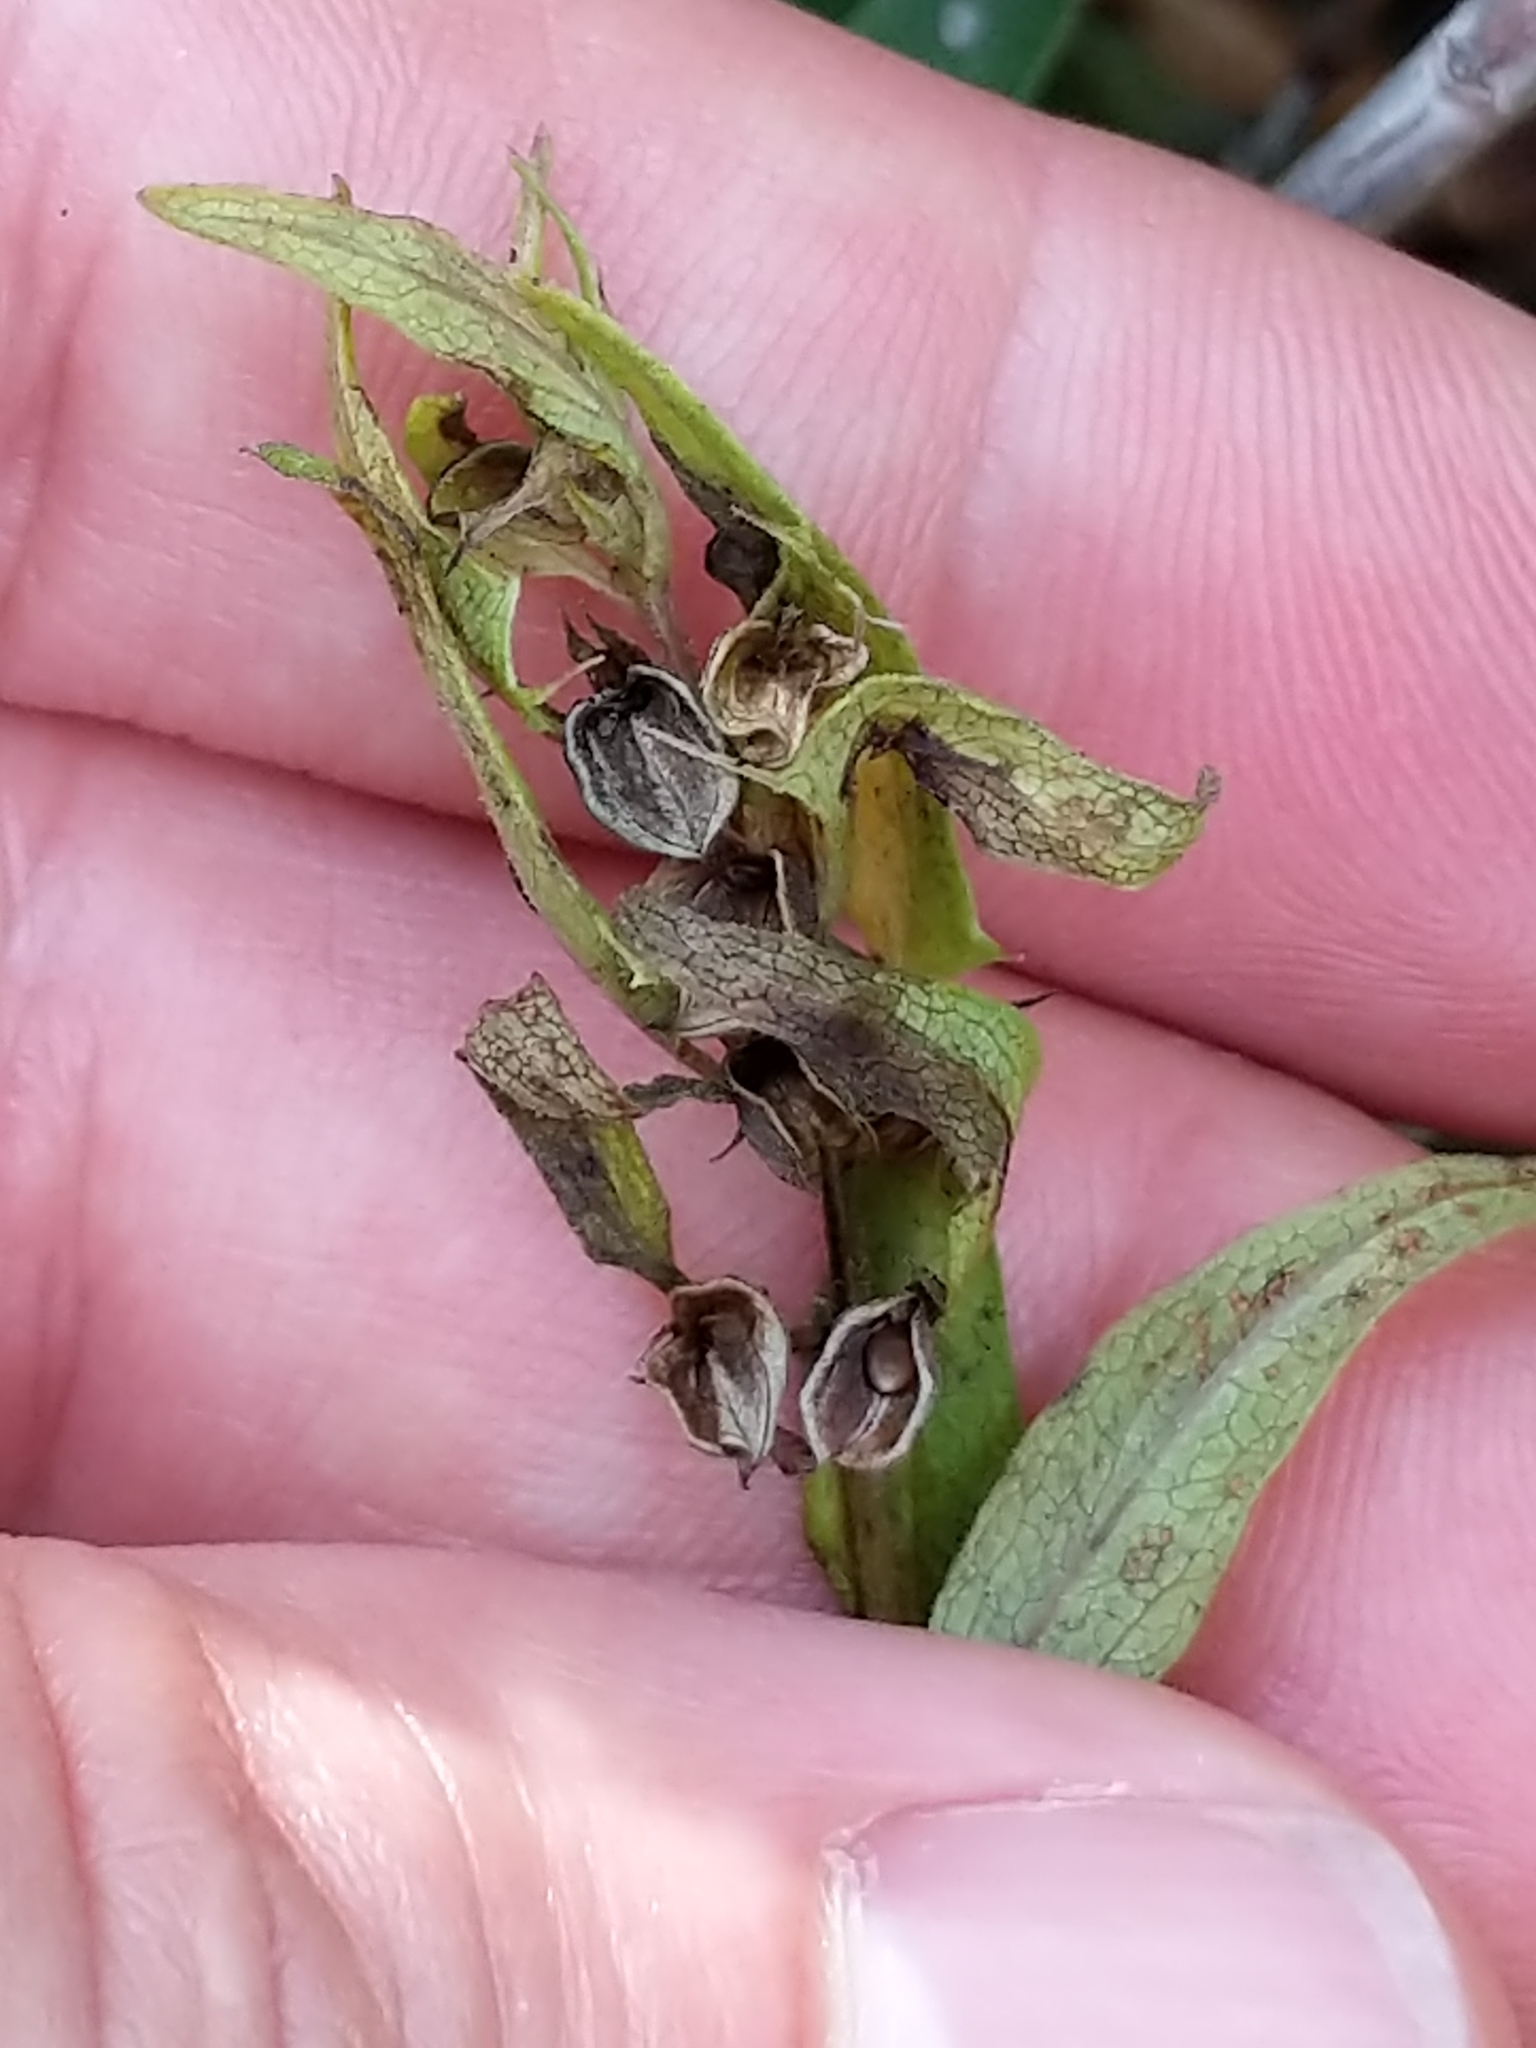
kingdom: Plantae
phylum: Tracheophyta
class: Magnoliopsida
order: Lamiales
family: Orobanchaceae
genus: Melampyrum
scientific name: Melampyrum lineare
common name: American cow-wheat
